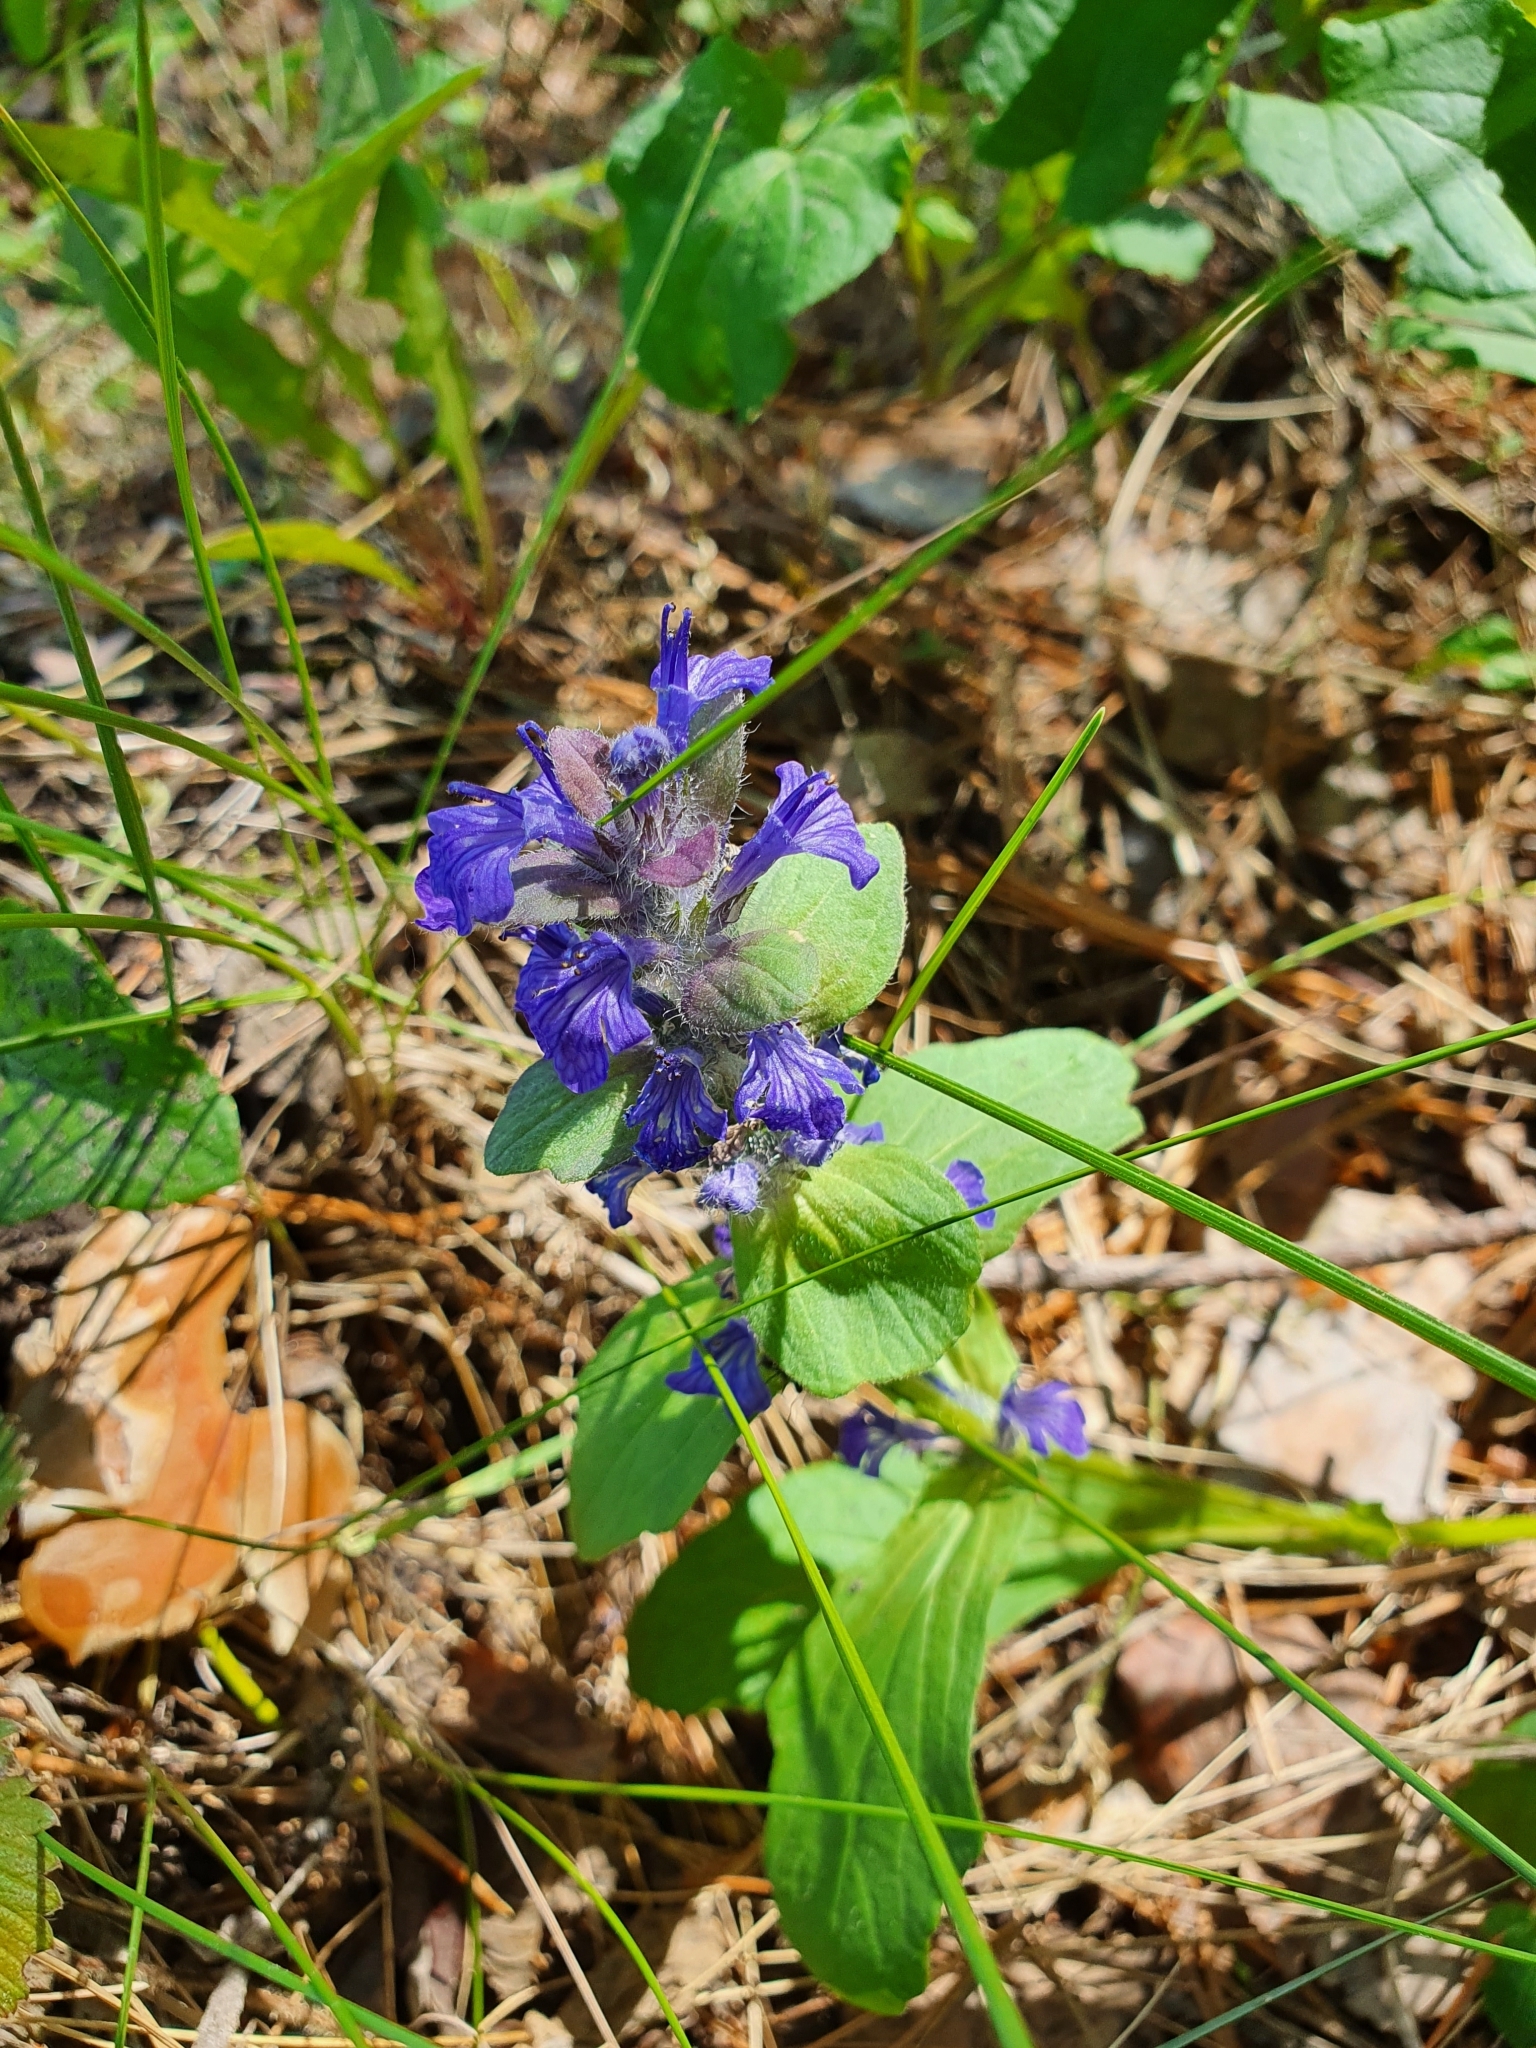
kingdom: Plantae
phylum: Tracheophyta
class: Magnoliopsida
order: Lamiales
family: Lamiaceae
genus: Ajuga
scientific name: Ajuga genevensis
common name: Blue bugle
